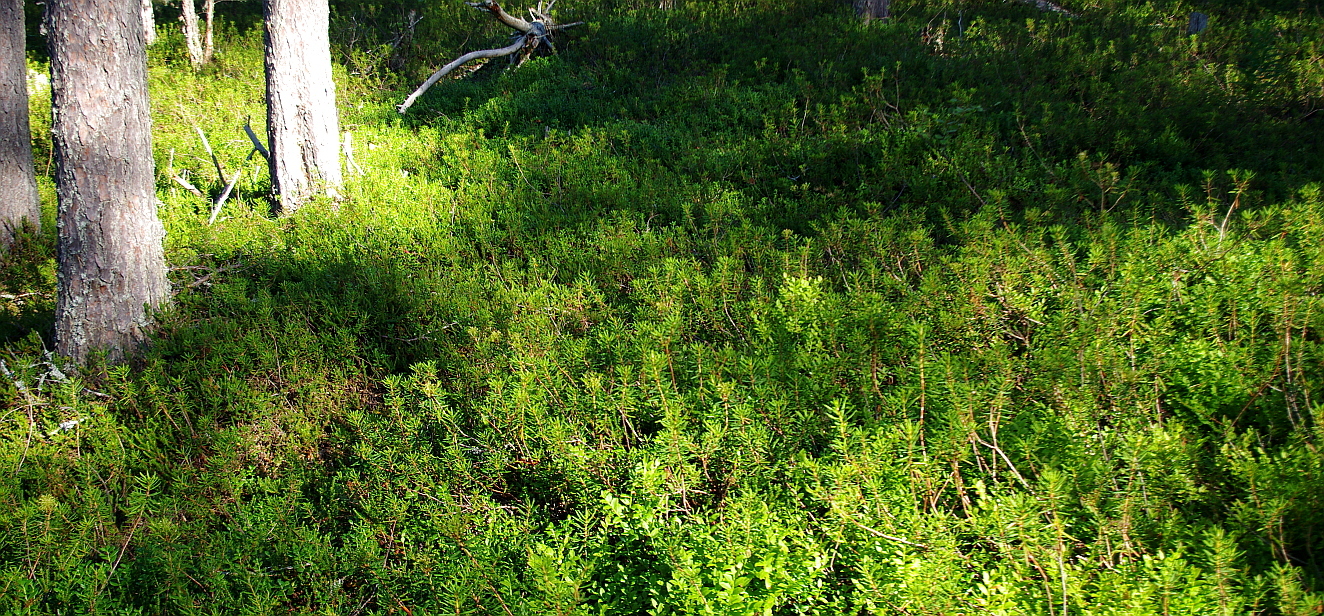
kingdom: Plantae
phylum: Tracheophyta
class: Magnoliopsida
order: Ericales
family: Ericaceae
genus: Rhododendron
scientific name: Rhododendron tomentosum
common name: Marsh labrador tea
